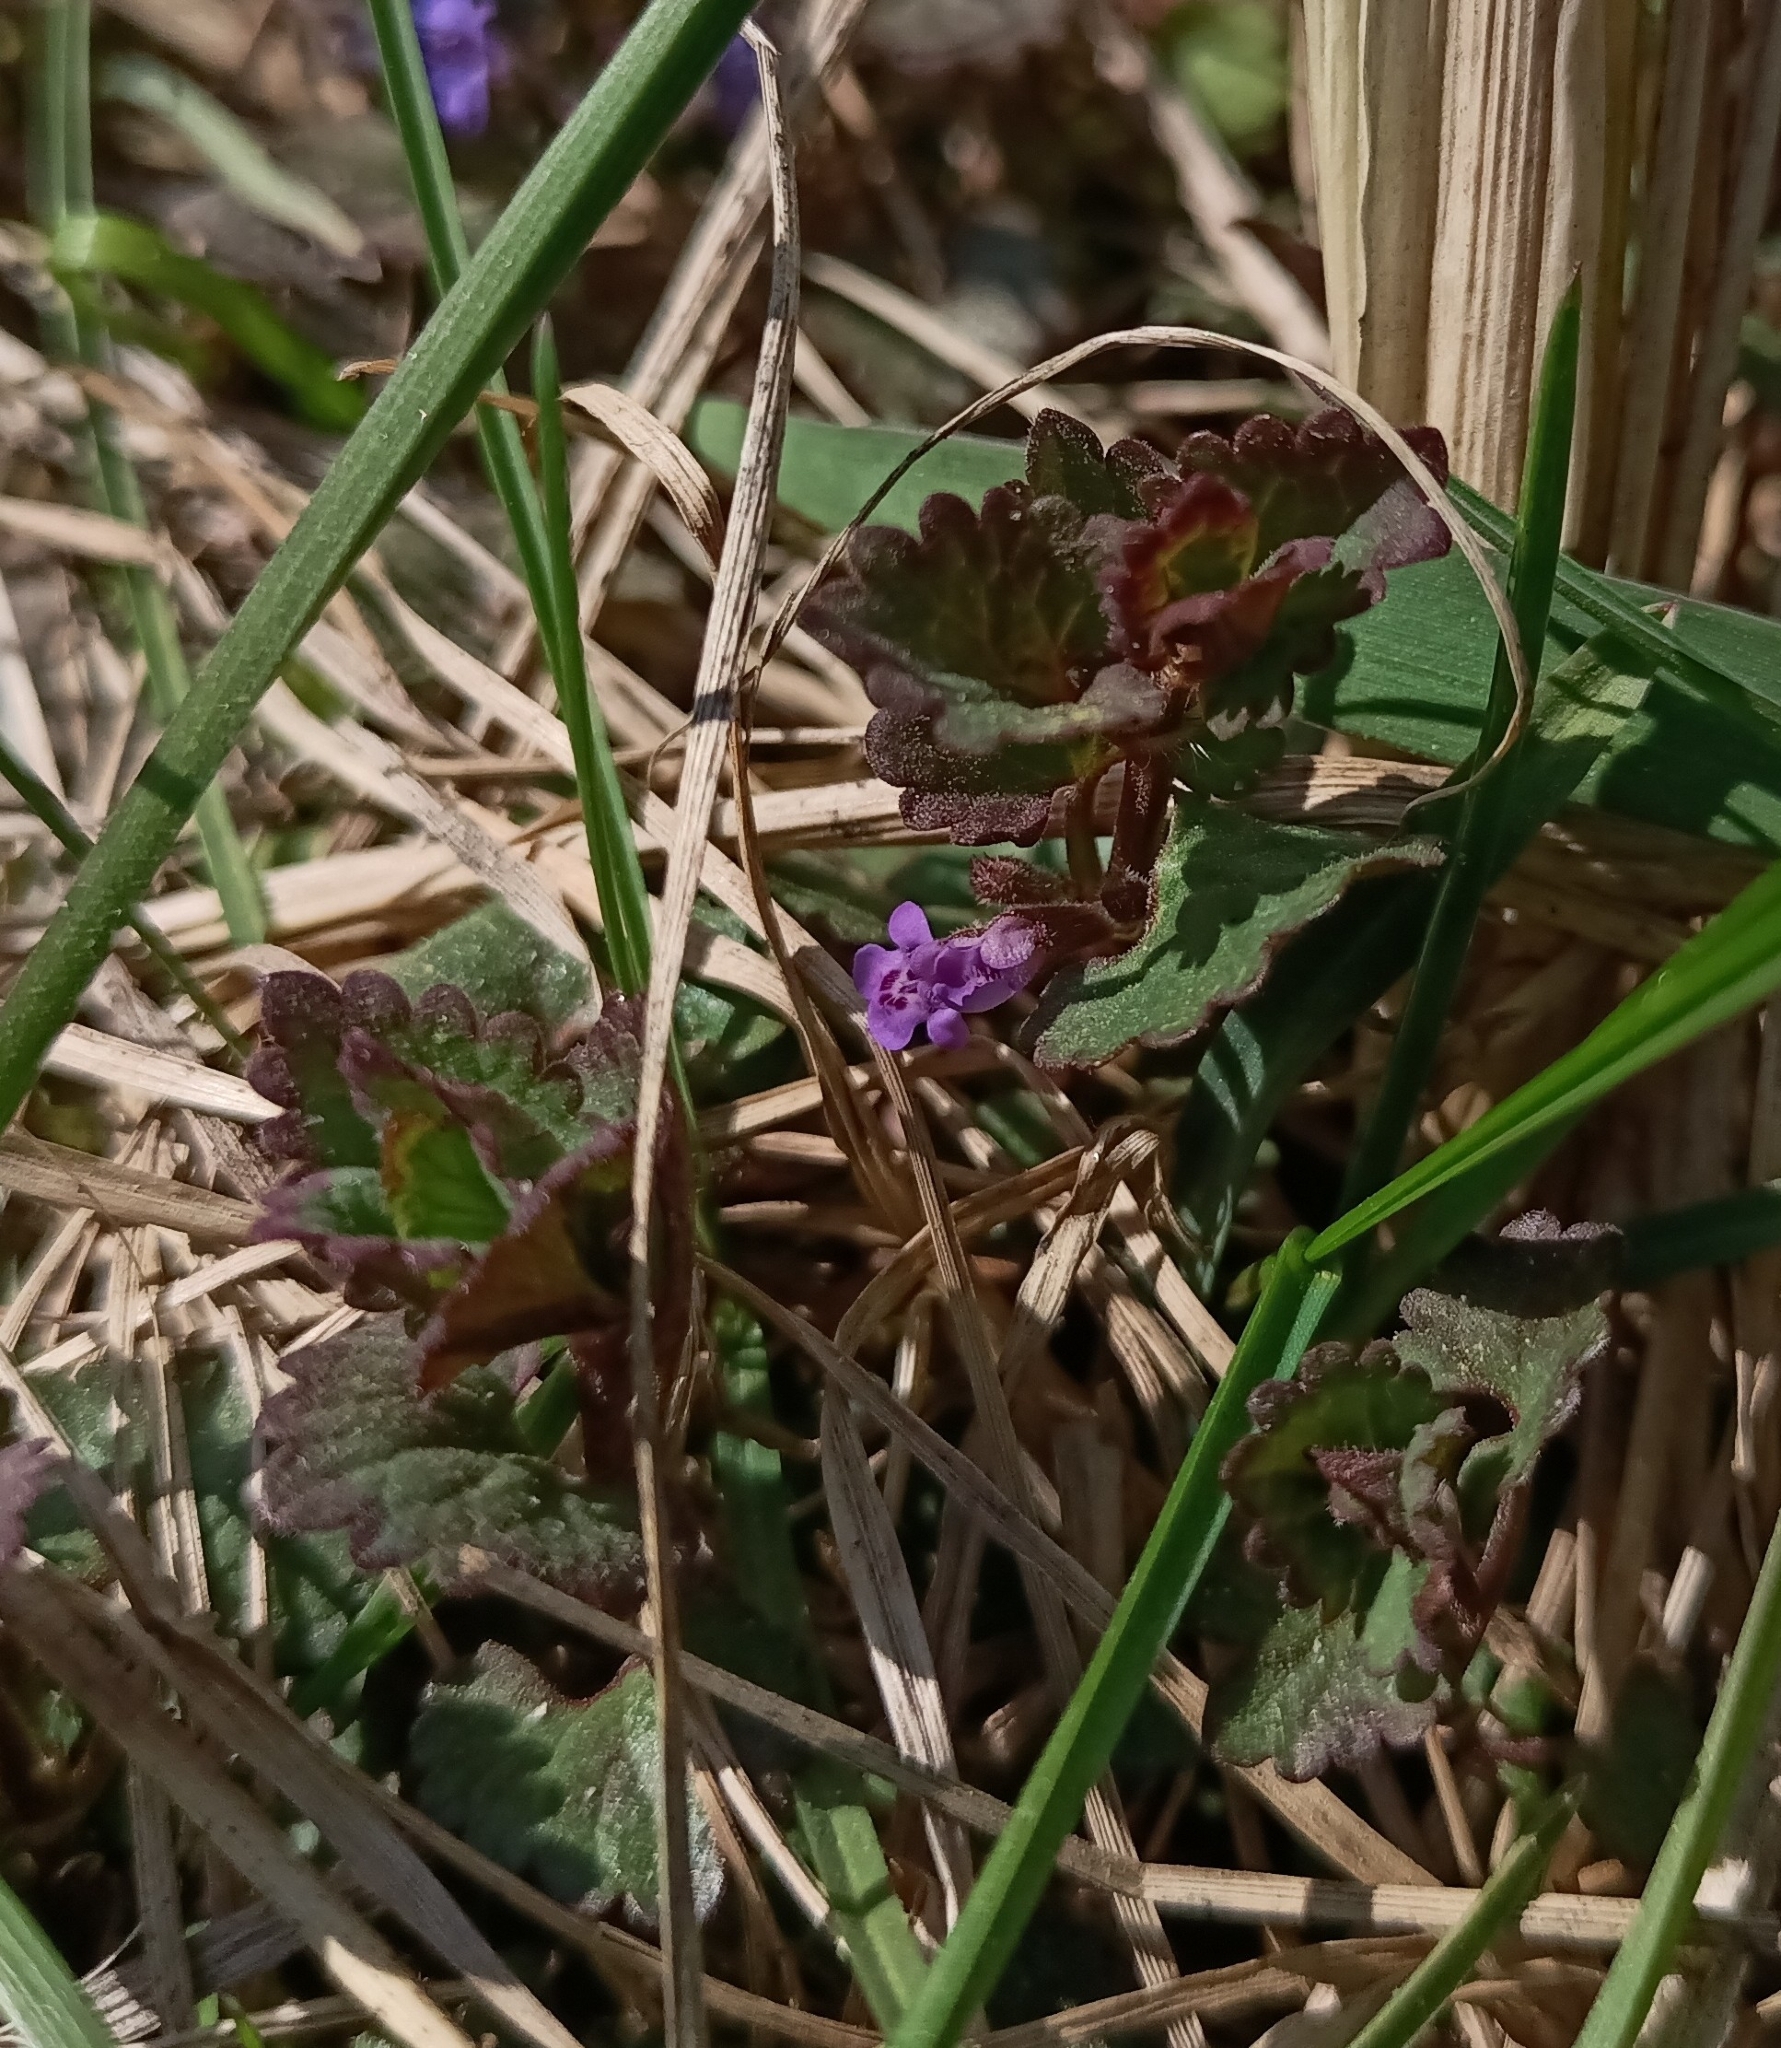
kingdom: Plantae
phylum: Tracheophyta
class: Magnoliopsida
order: Lamiales
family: Lamiaceae
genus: Glechoma
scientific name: Glechoma hederacea
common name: Ground ivy
